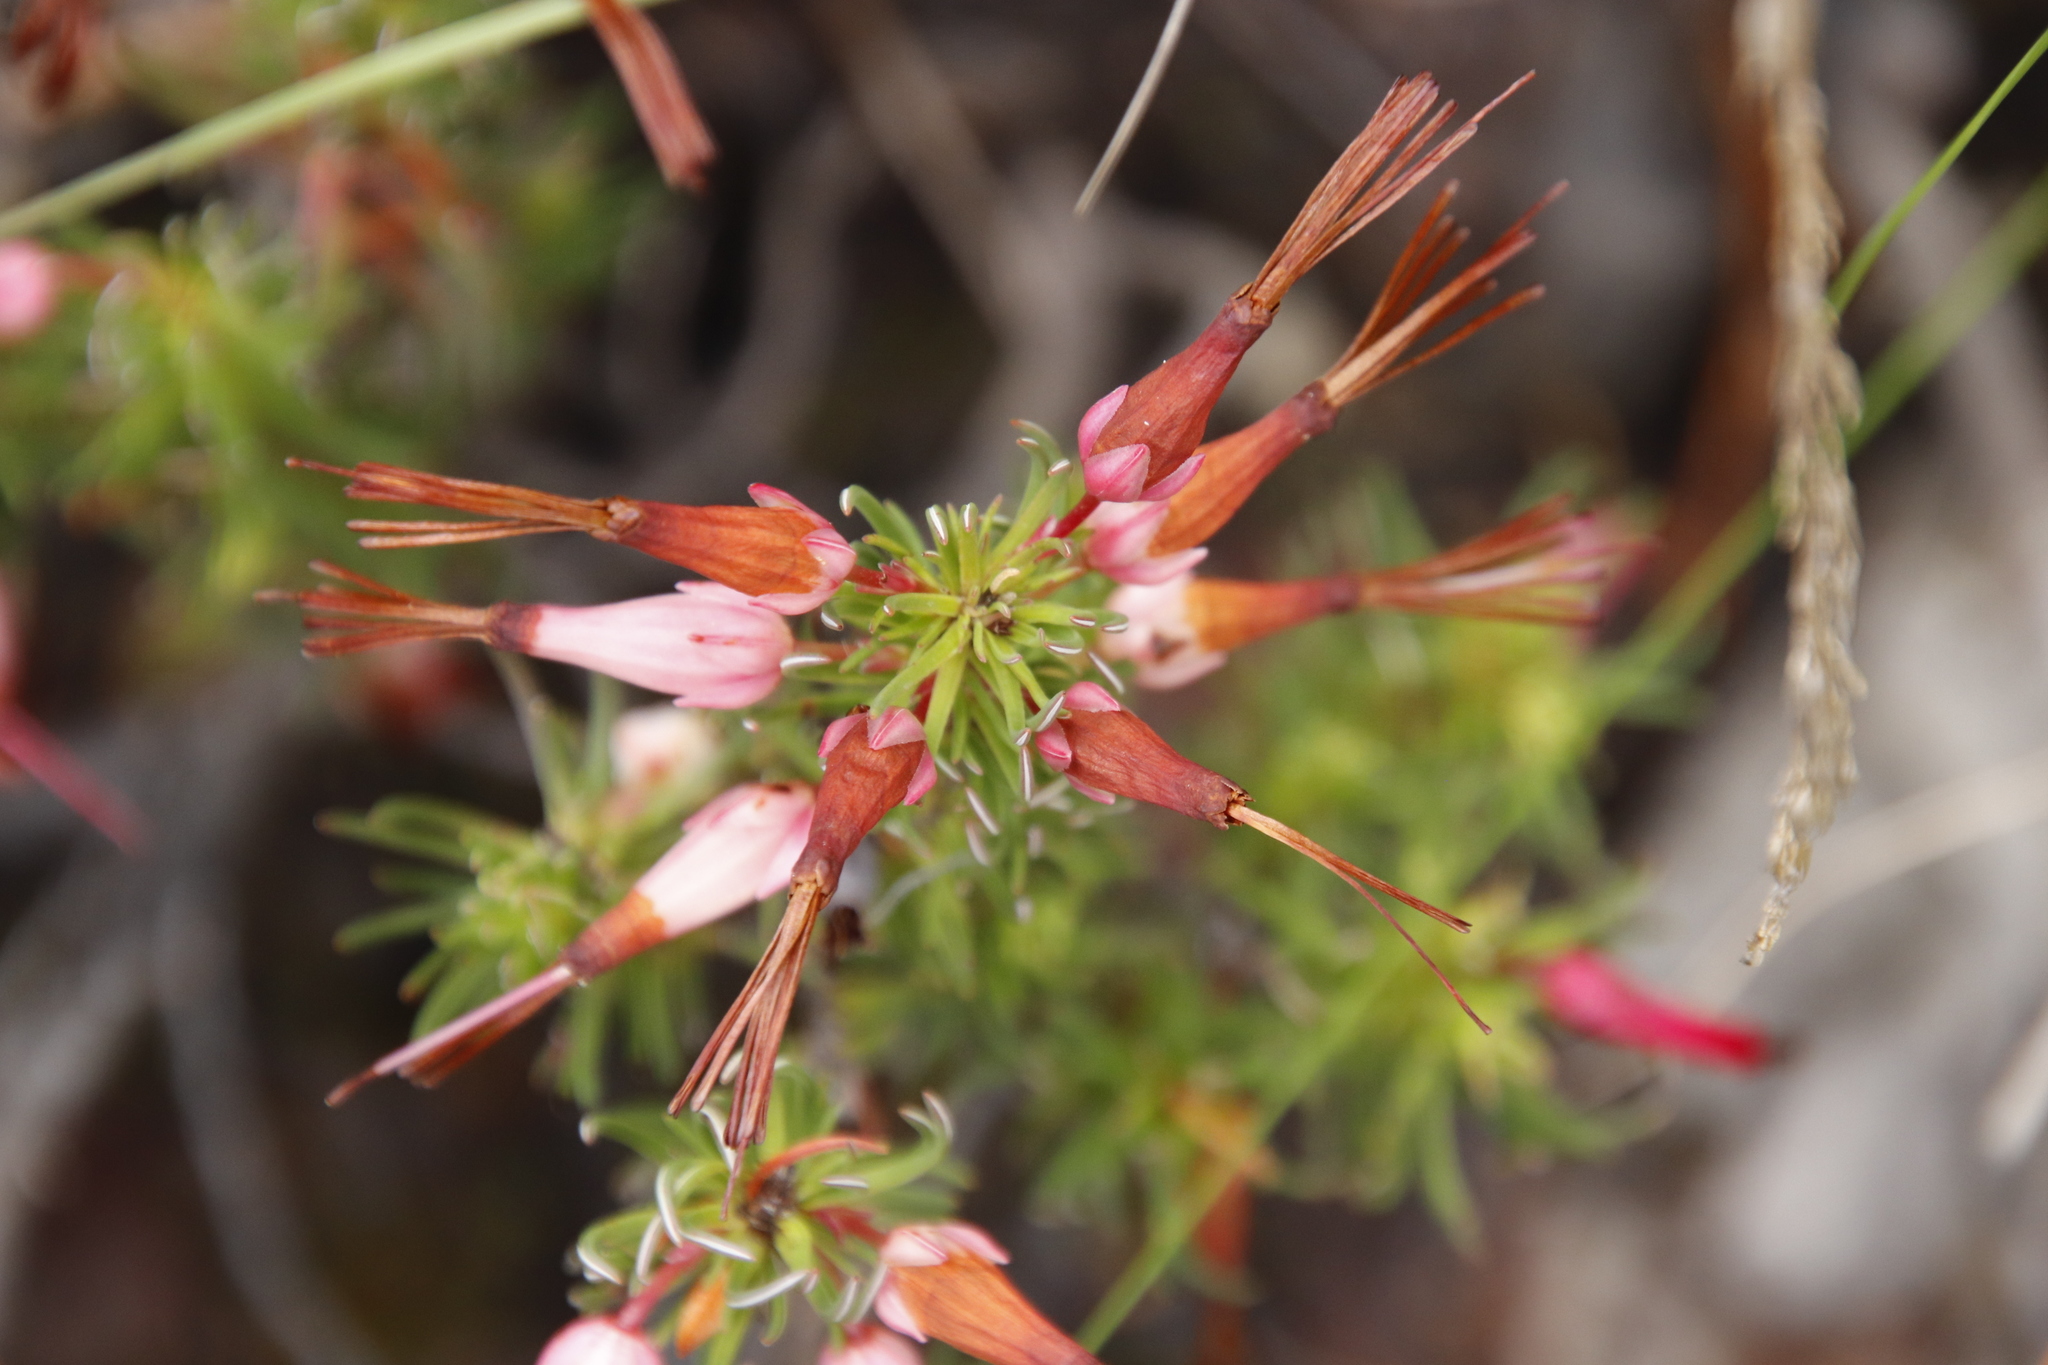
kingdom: Plantae
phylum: Tracheophyta
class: Magnoliopsida
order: Ericales
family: Ericaceae
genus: Erica
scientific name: Erica plukenetii
